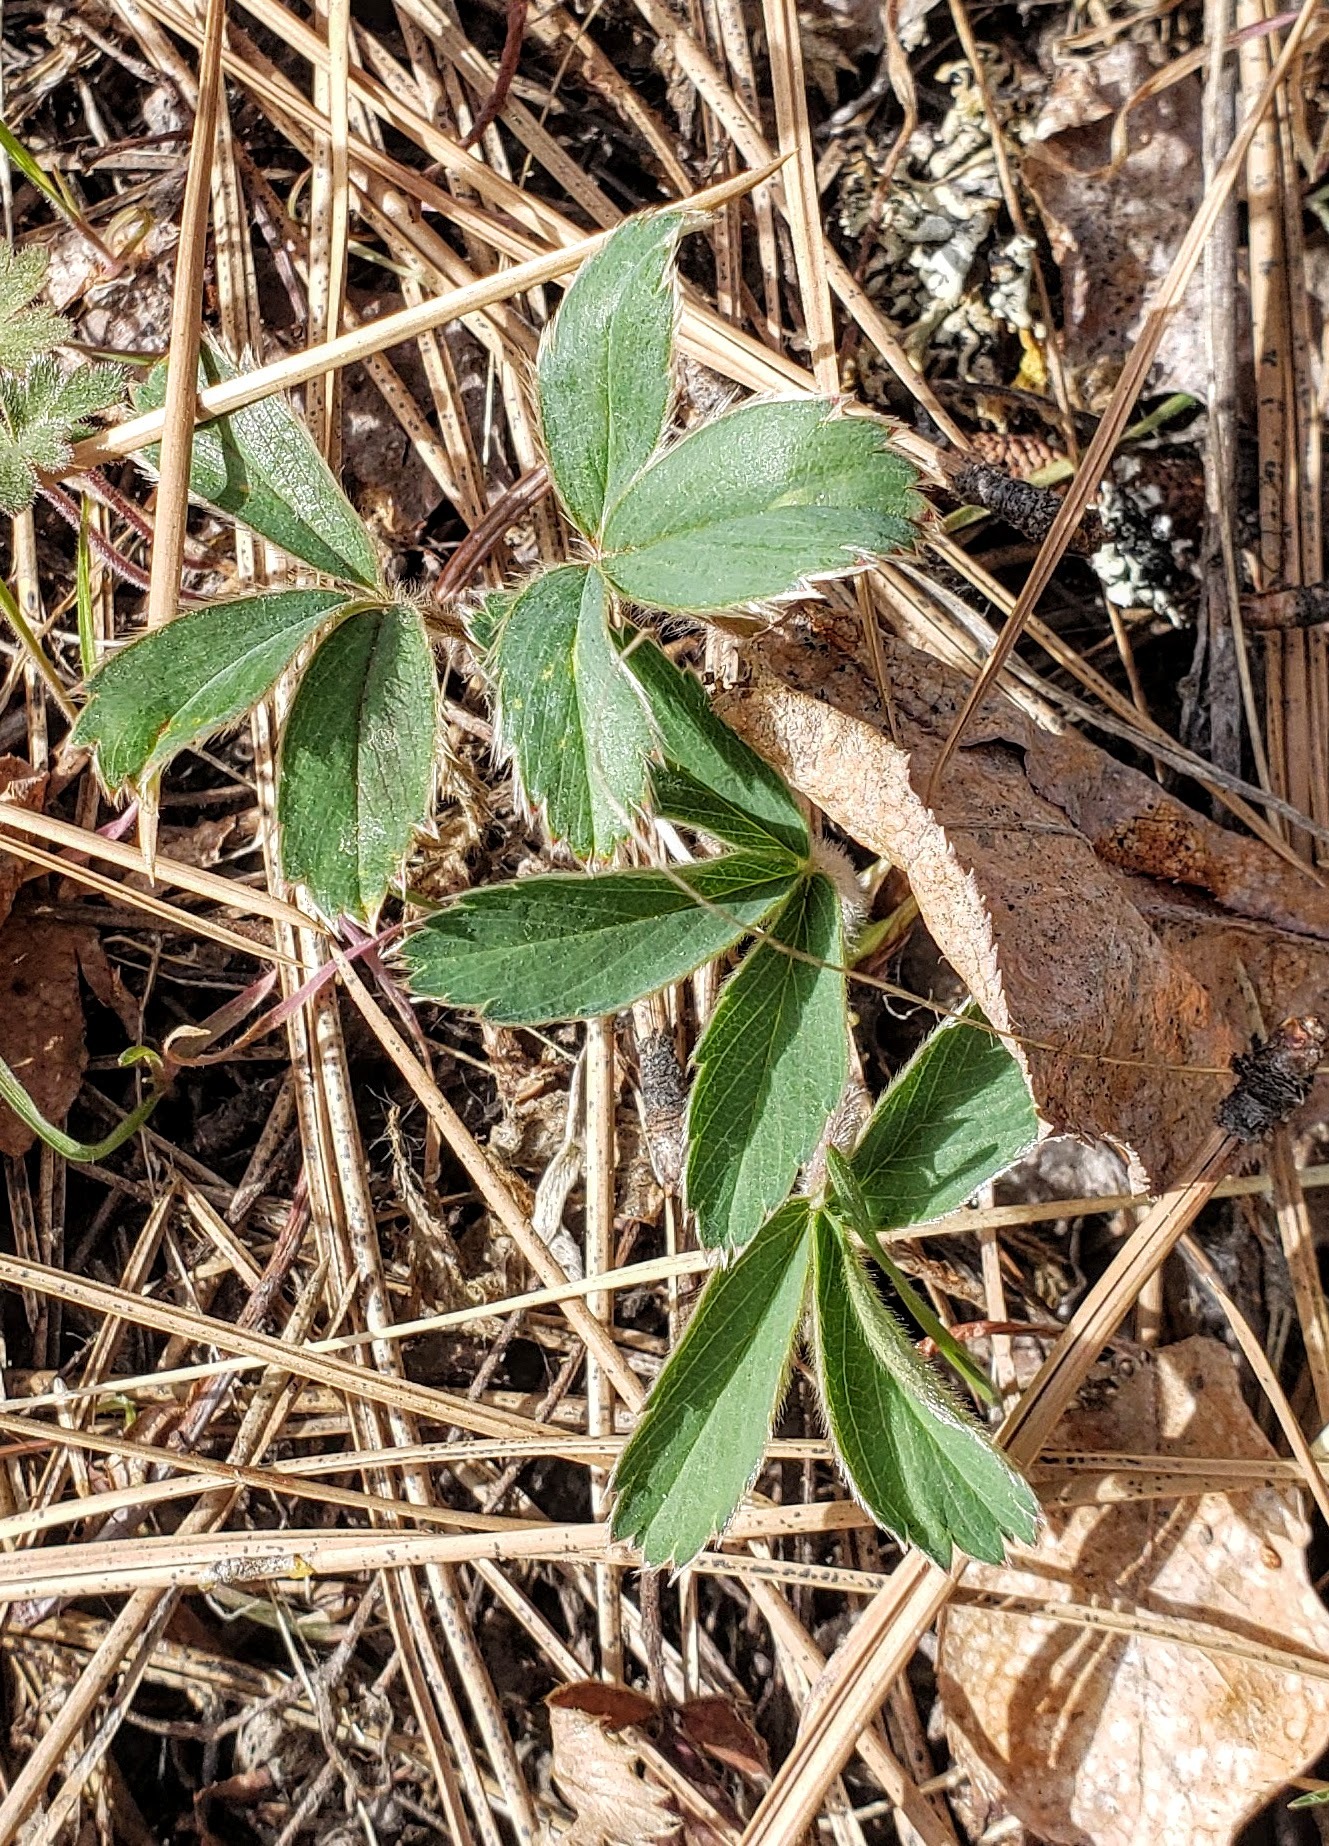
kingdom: Plantae
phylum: Tracheophyta
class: Magnoliopsida
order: Rosales
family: Rosaceae
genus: Fragaria
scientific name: Fragaria virginiana
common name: Thickleaved wild strawberry
